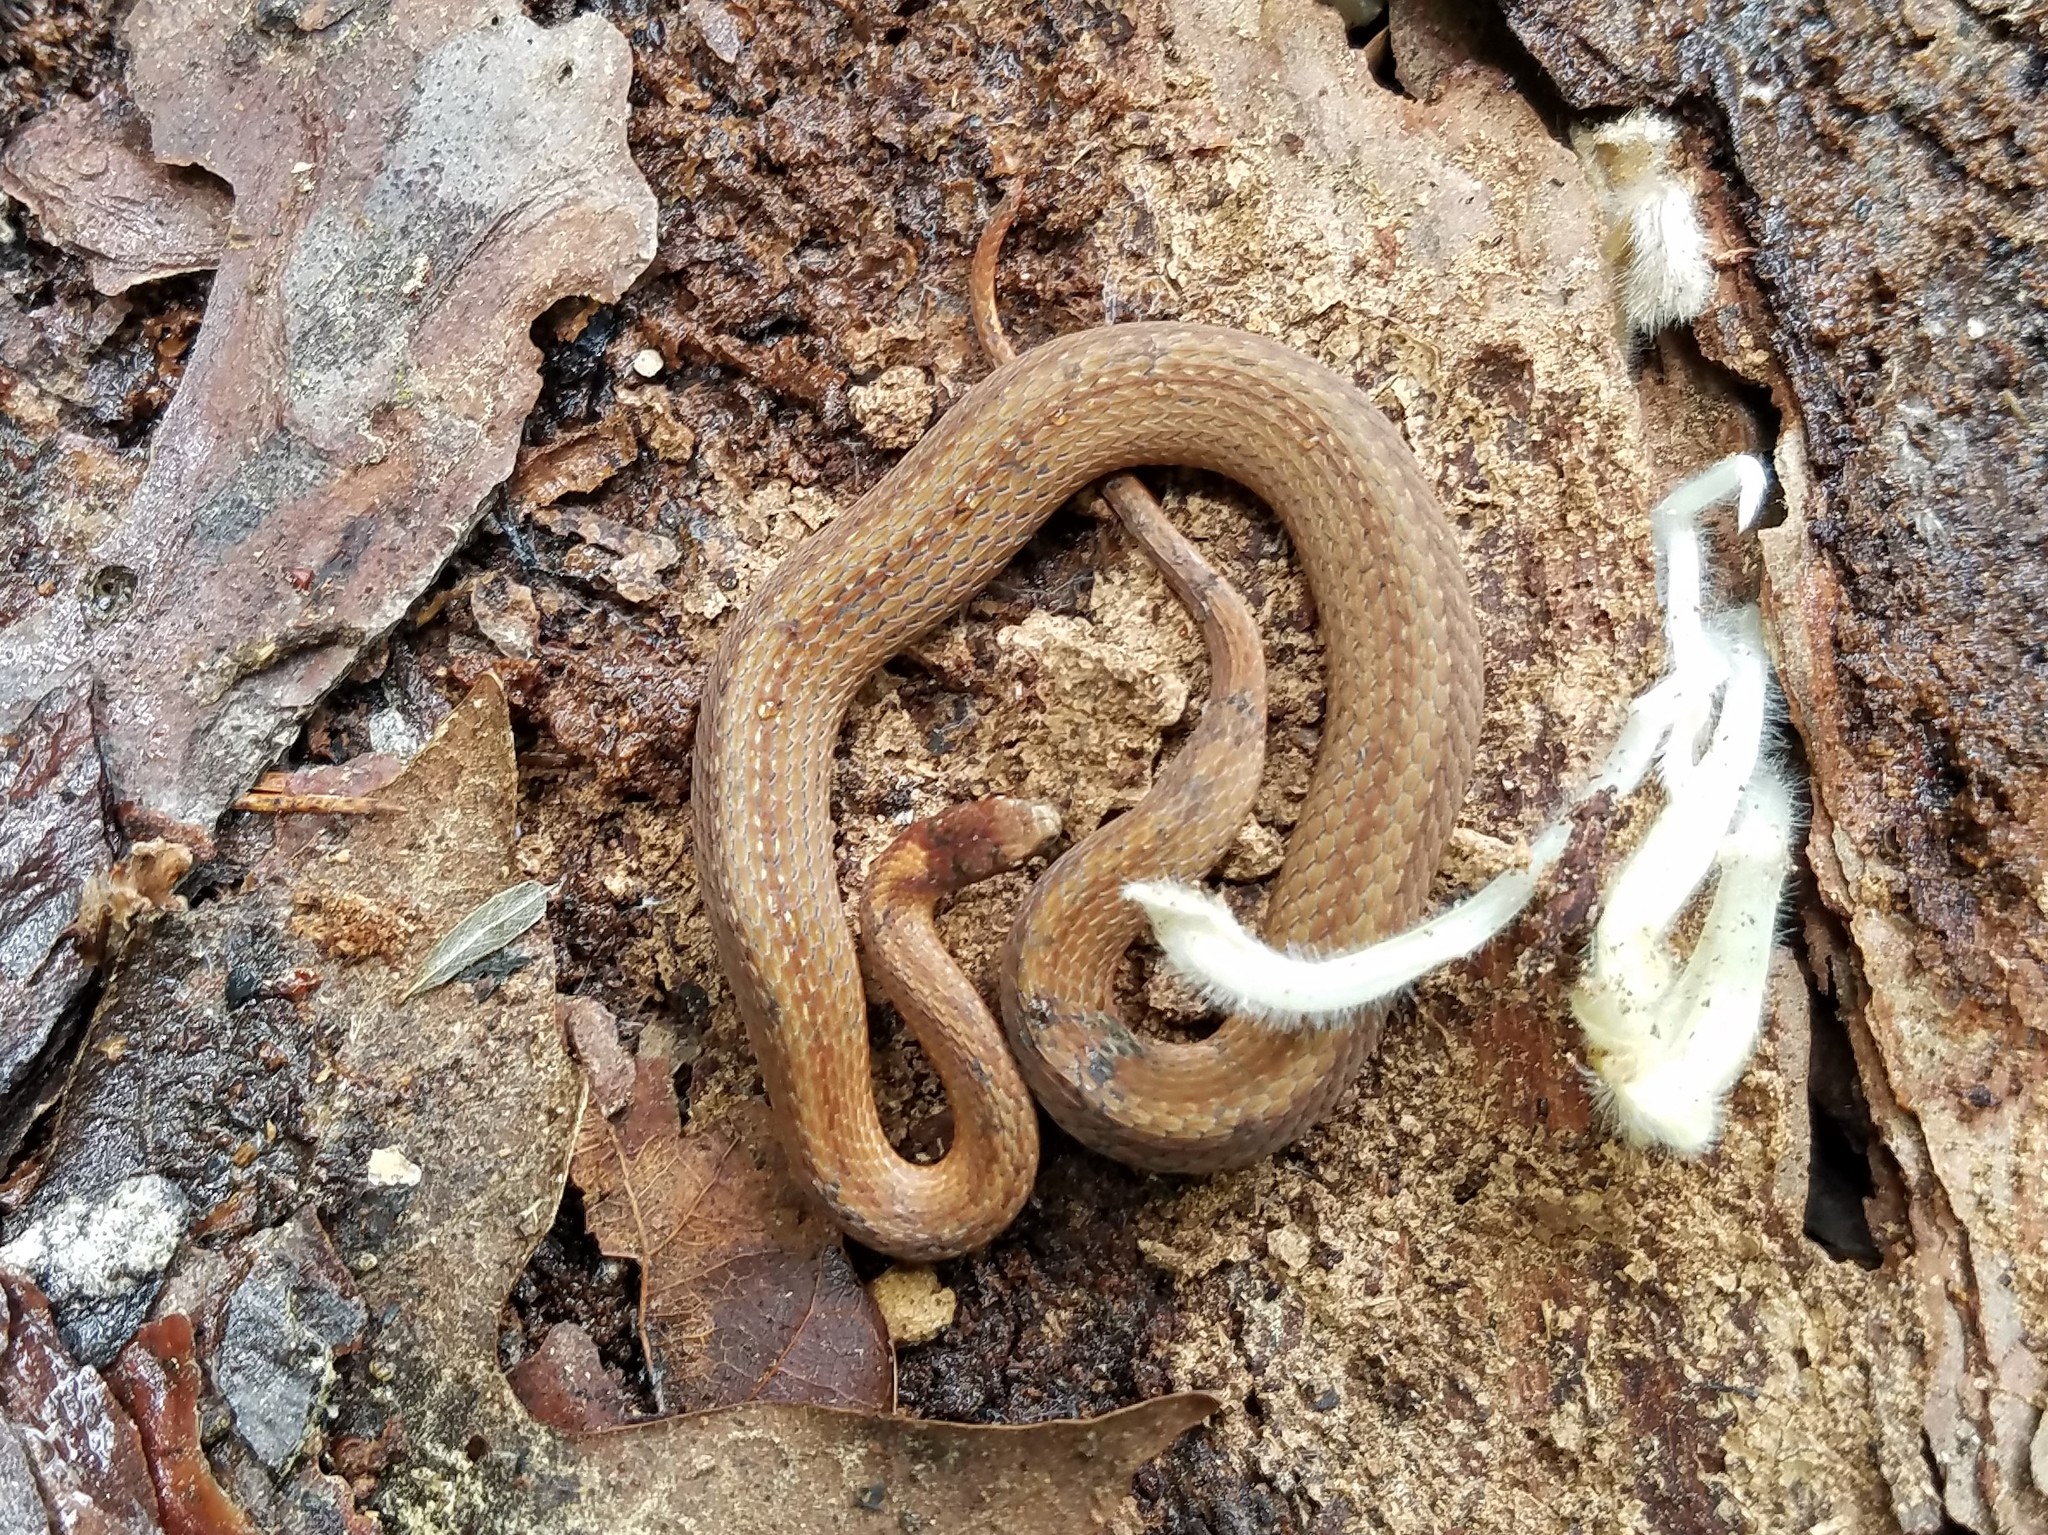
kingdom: Animalia
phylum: Chordata
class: Squamata
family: Colubridae
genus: Storeria
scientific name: Storeria occipitomaculata
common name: Redbelly snake
